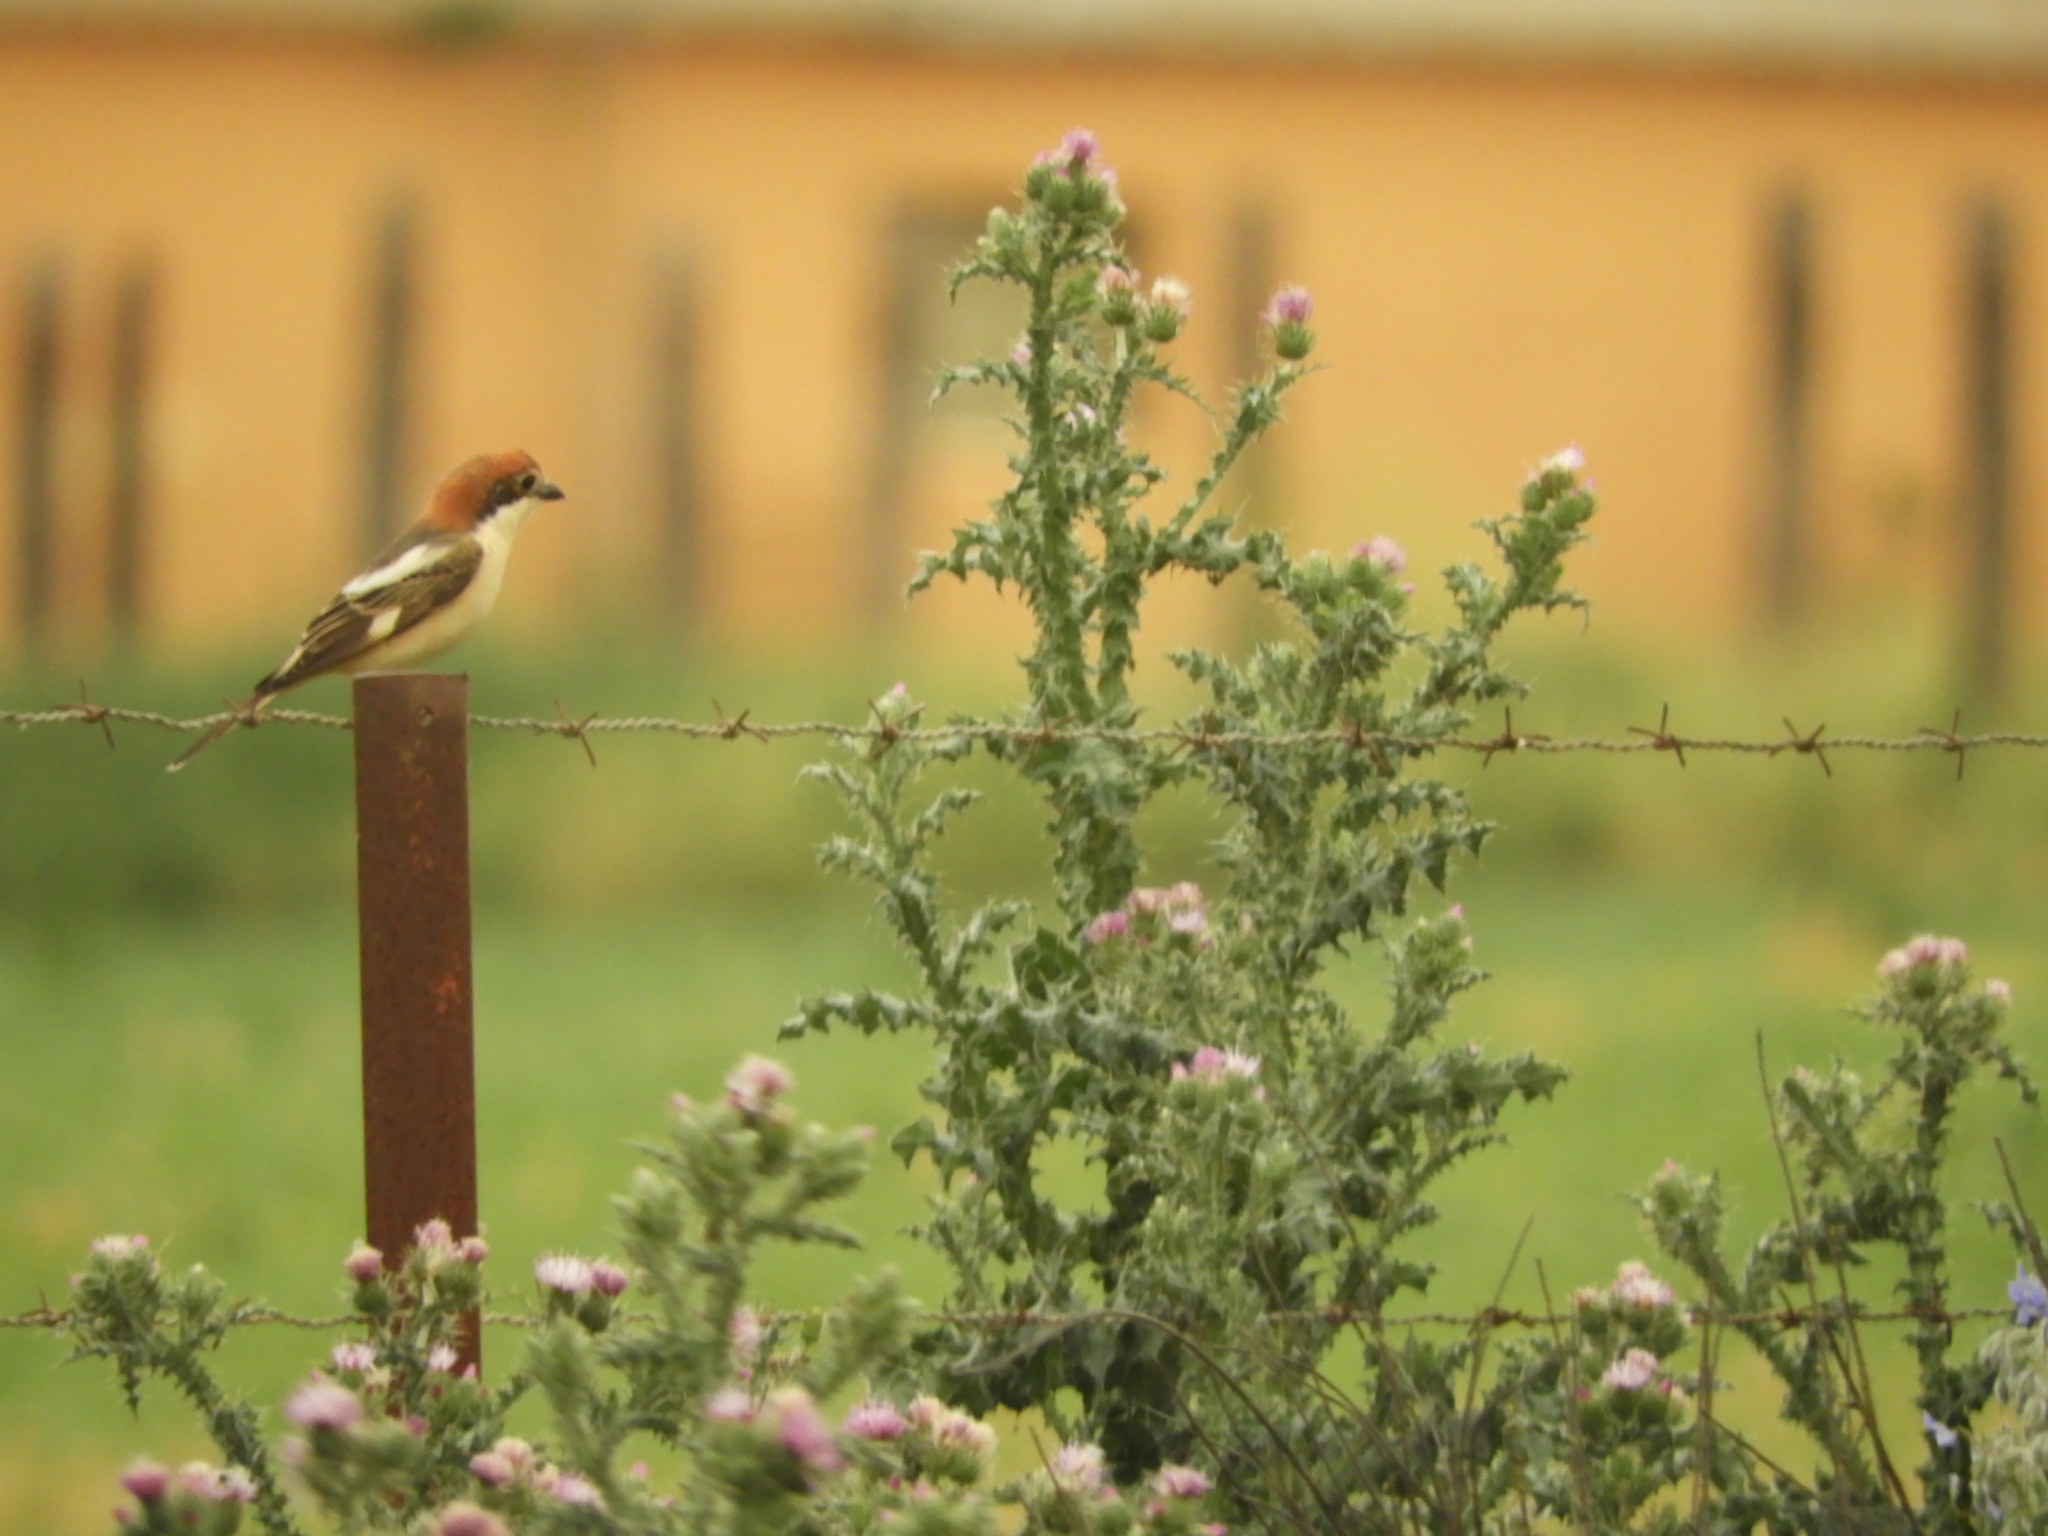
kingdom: Animalia
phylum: Chordata
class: Aves
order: Passeriformes
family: Laniidae
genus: Lanius
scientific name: Lanius senator
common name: Woodchat shrike
